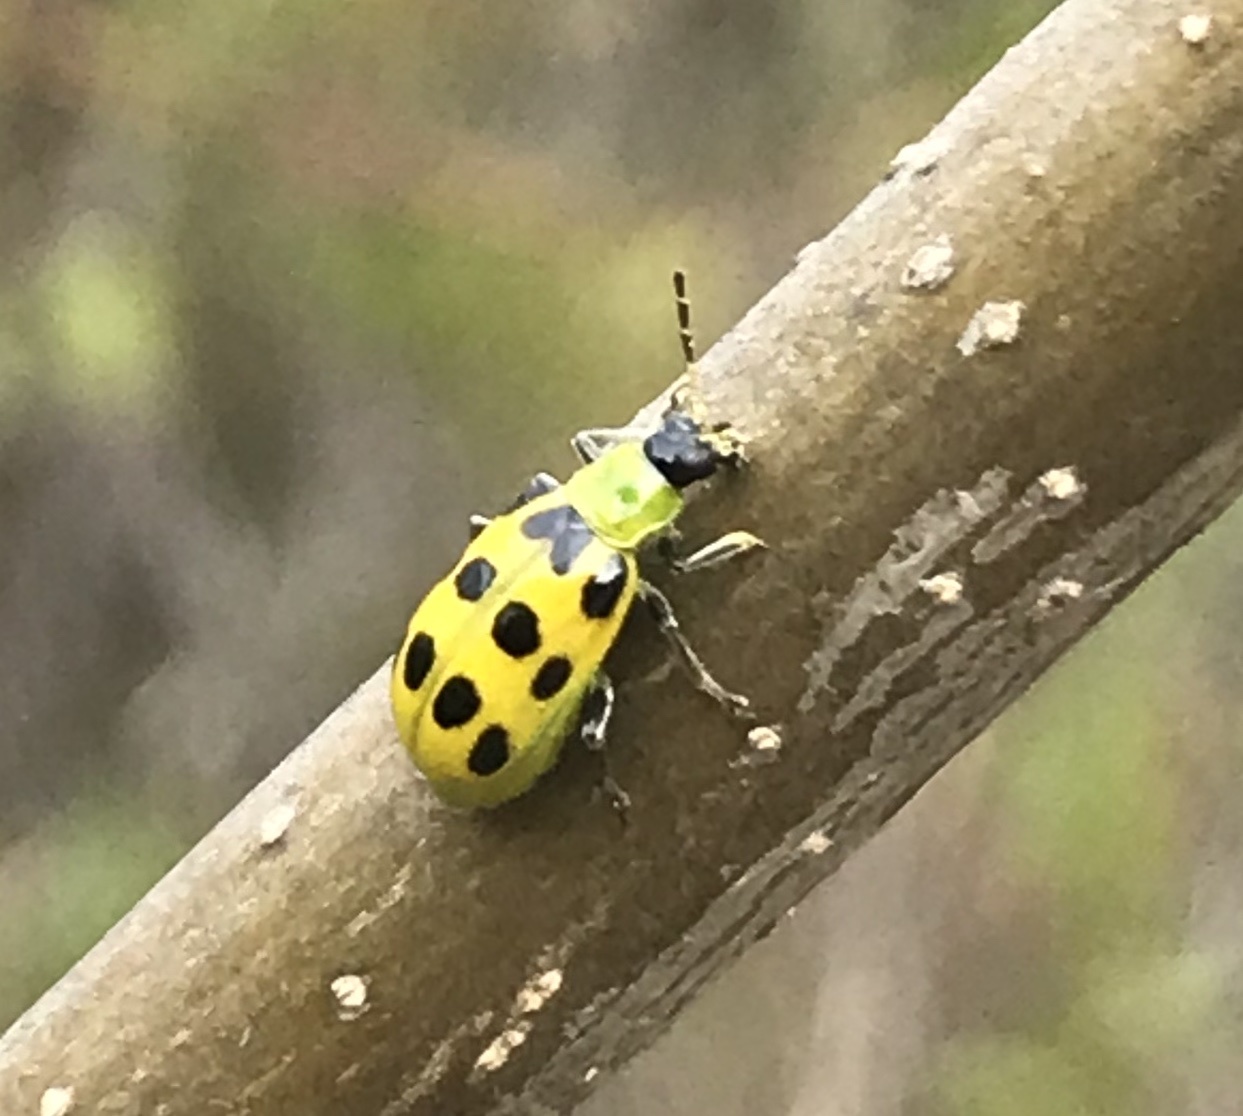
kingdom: Animalia
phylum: Arthropoda
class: Insecta
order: Coleoptera
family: Chrysomelidae
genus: Diabrotica
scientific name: Diabrotica undecimpunctata
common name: Spotted cucumber beetle
